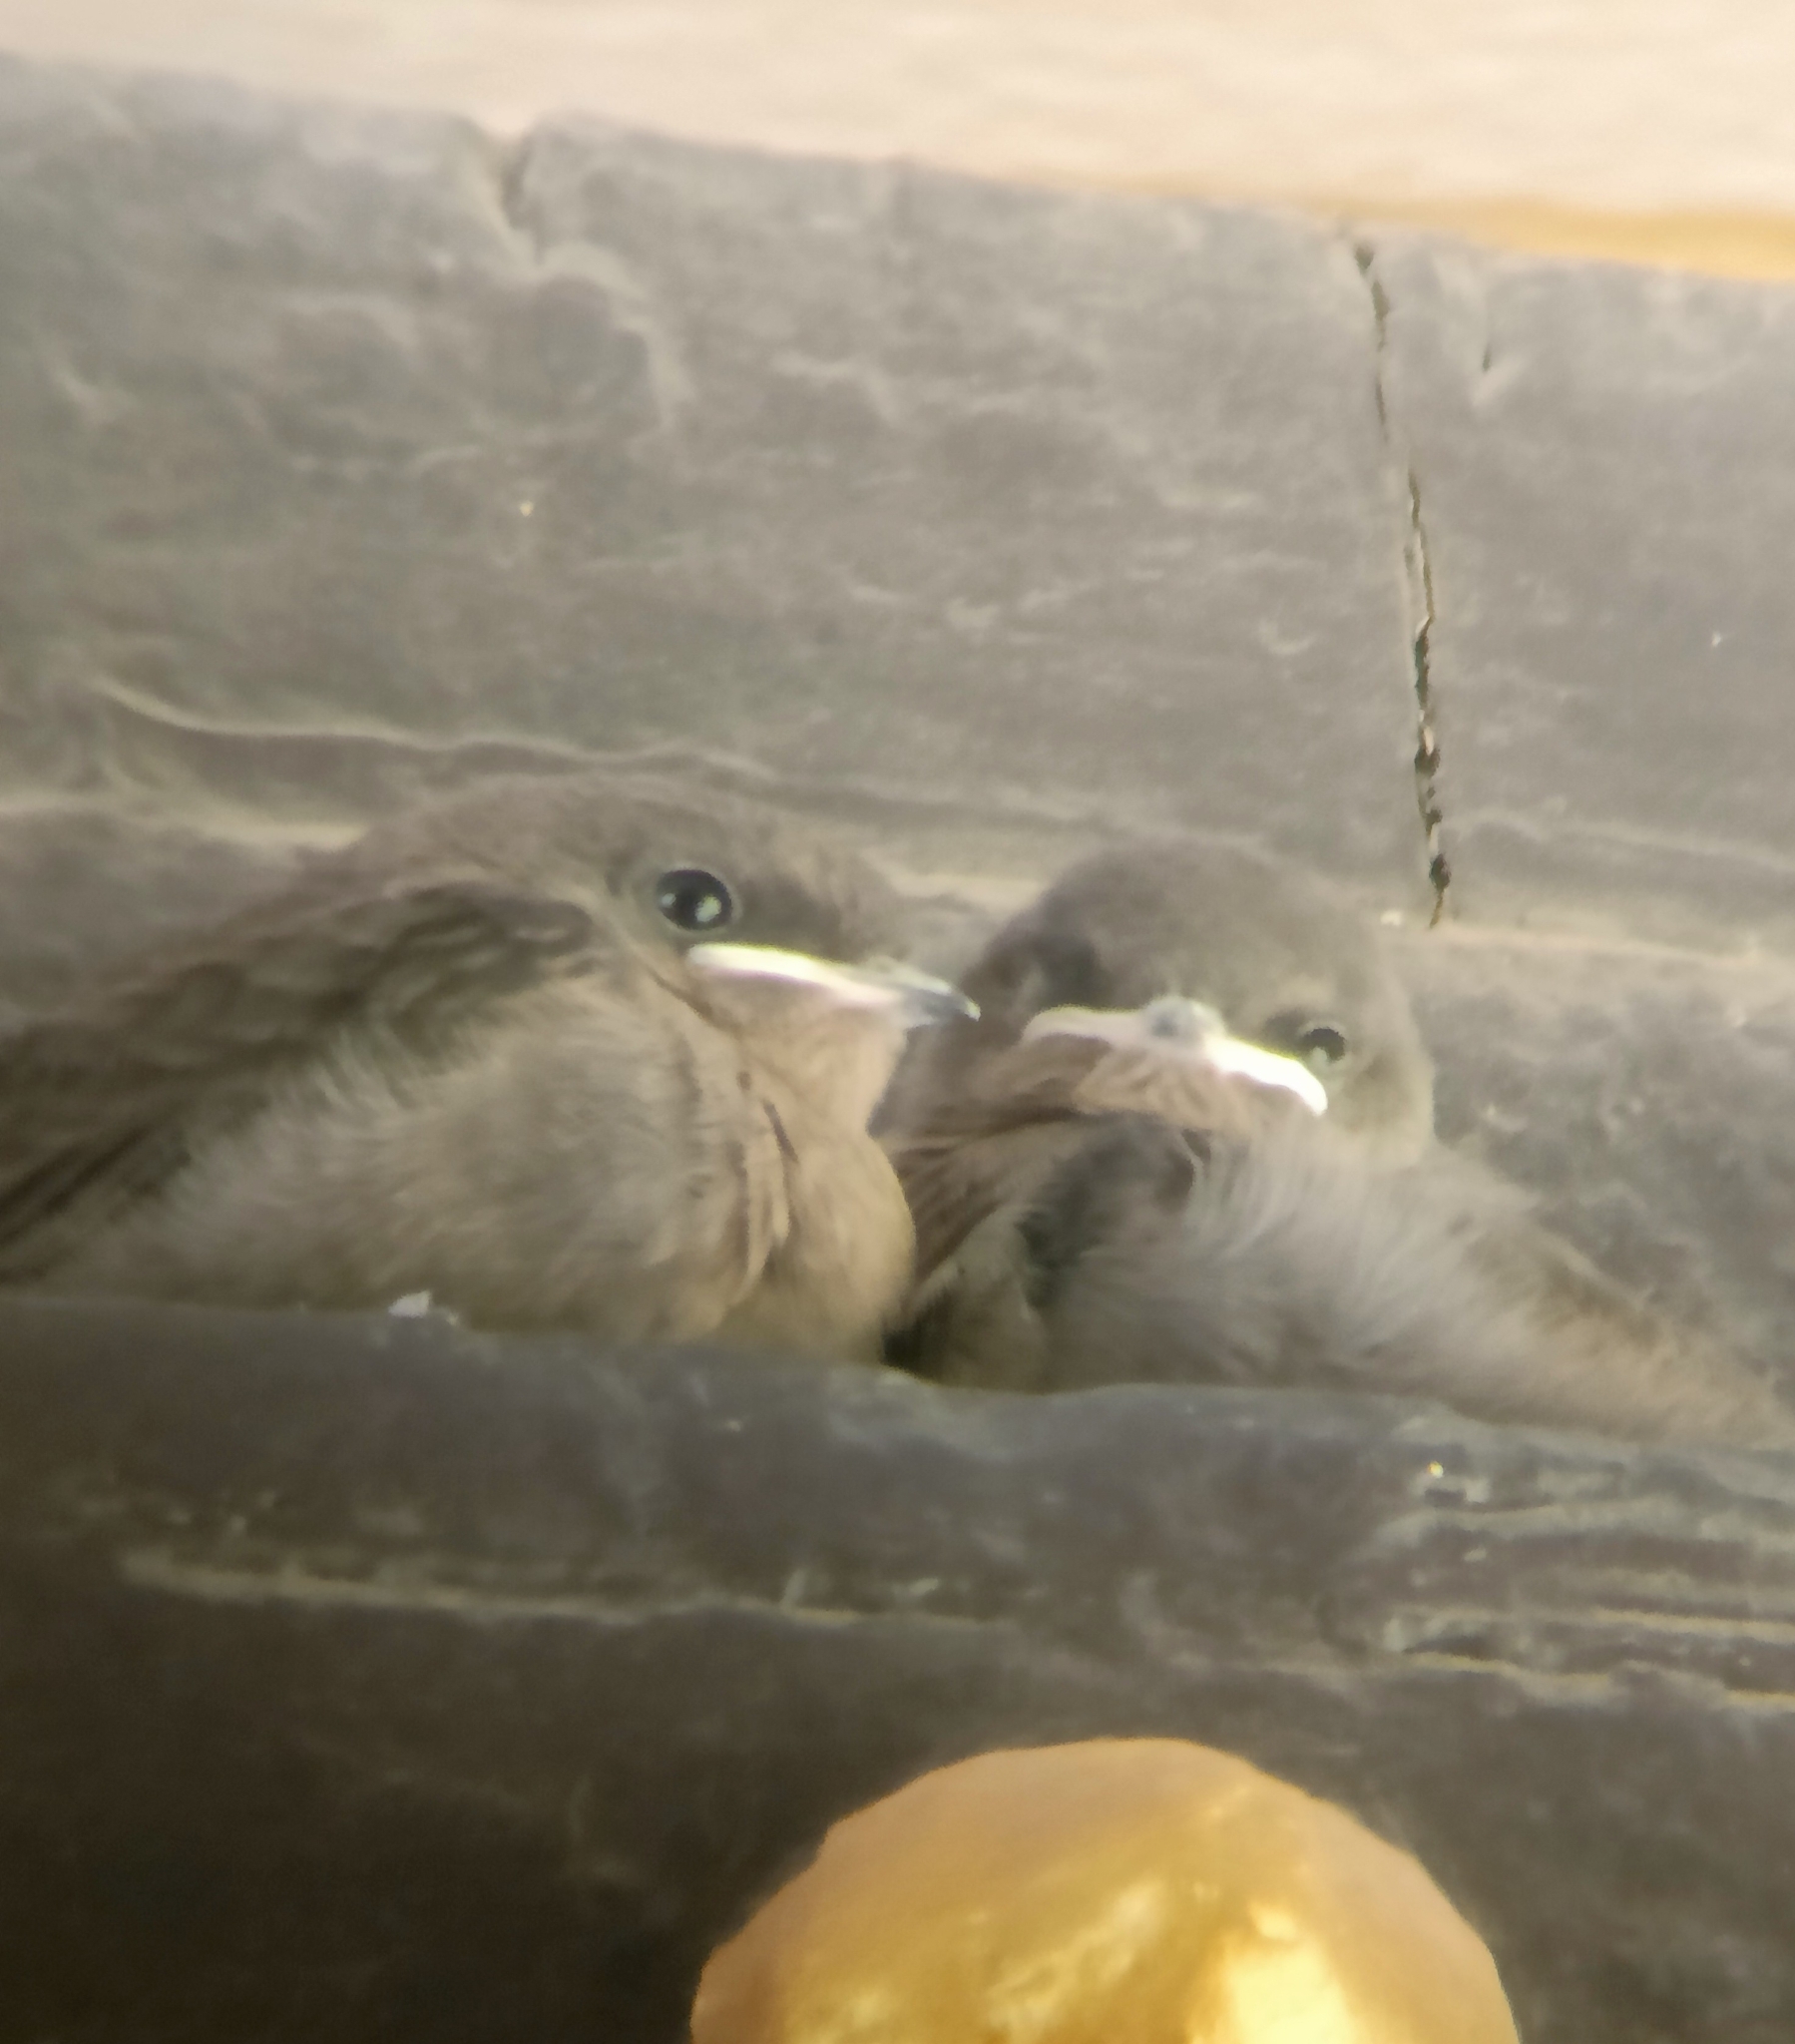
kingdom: Animalia
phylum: Chordata
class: Aves
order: Passeriformes
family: Hirundinidae
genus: Ptyonoprogne
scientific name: Ptyonoprogne concolor
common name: Dusky crag-martin
